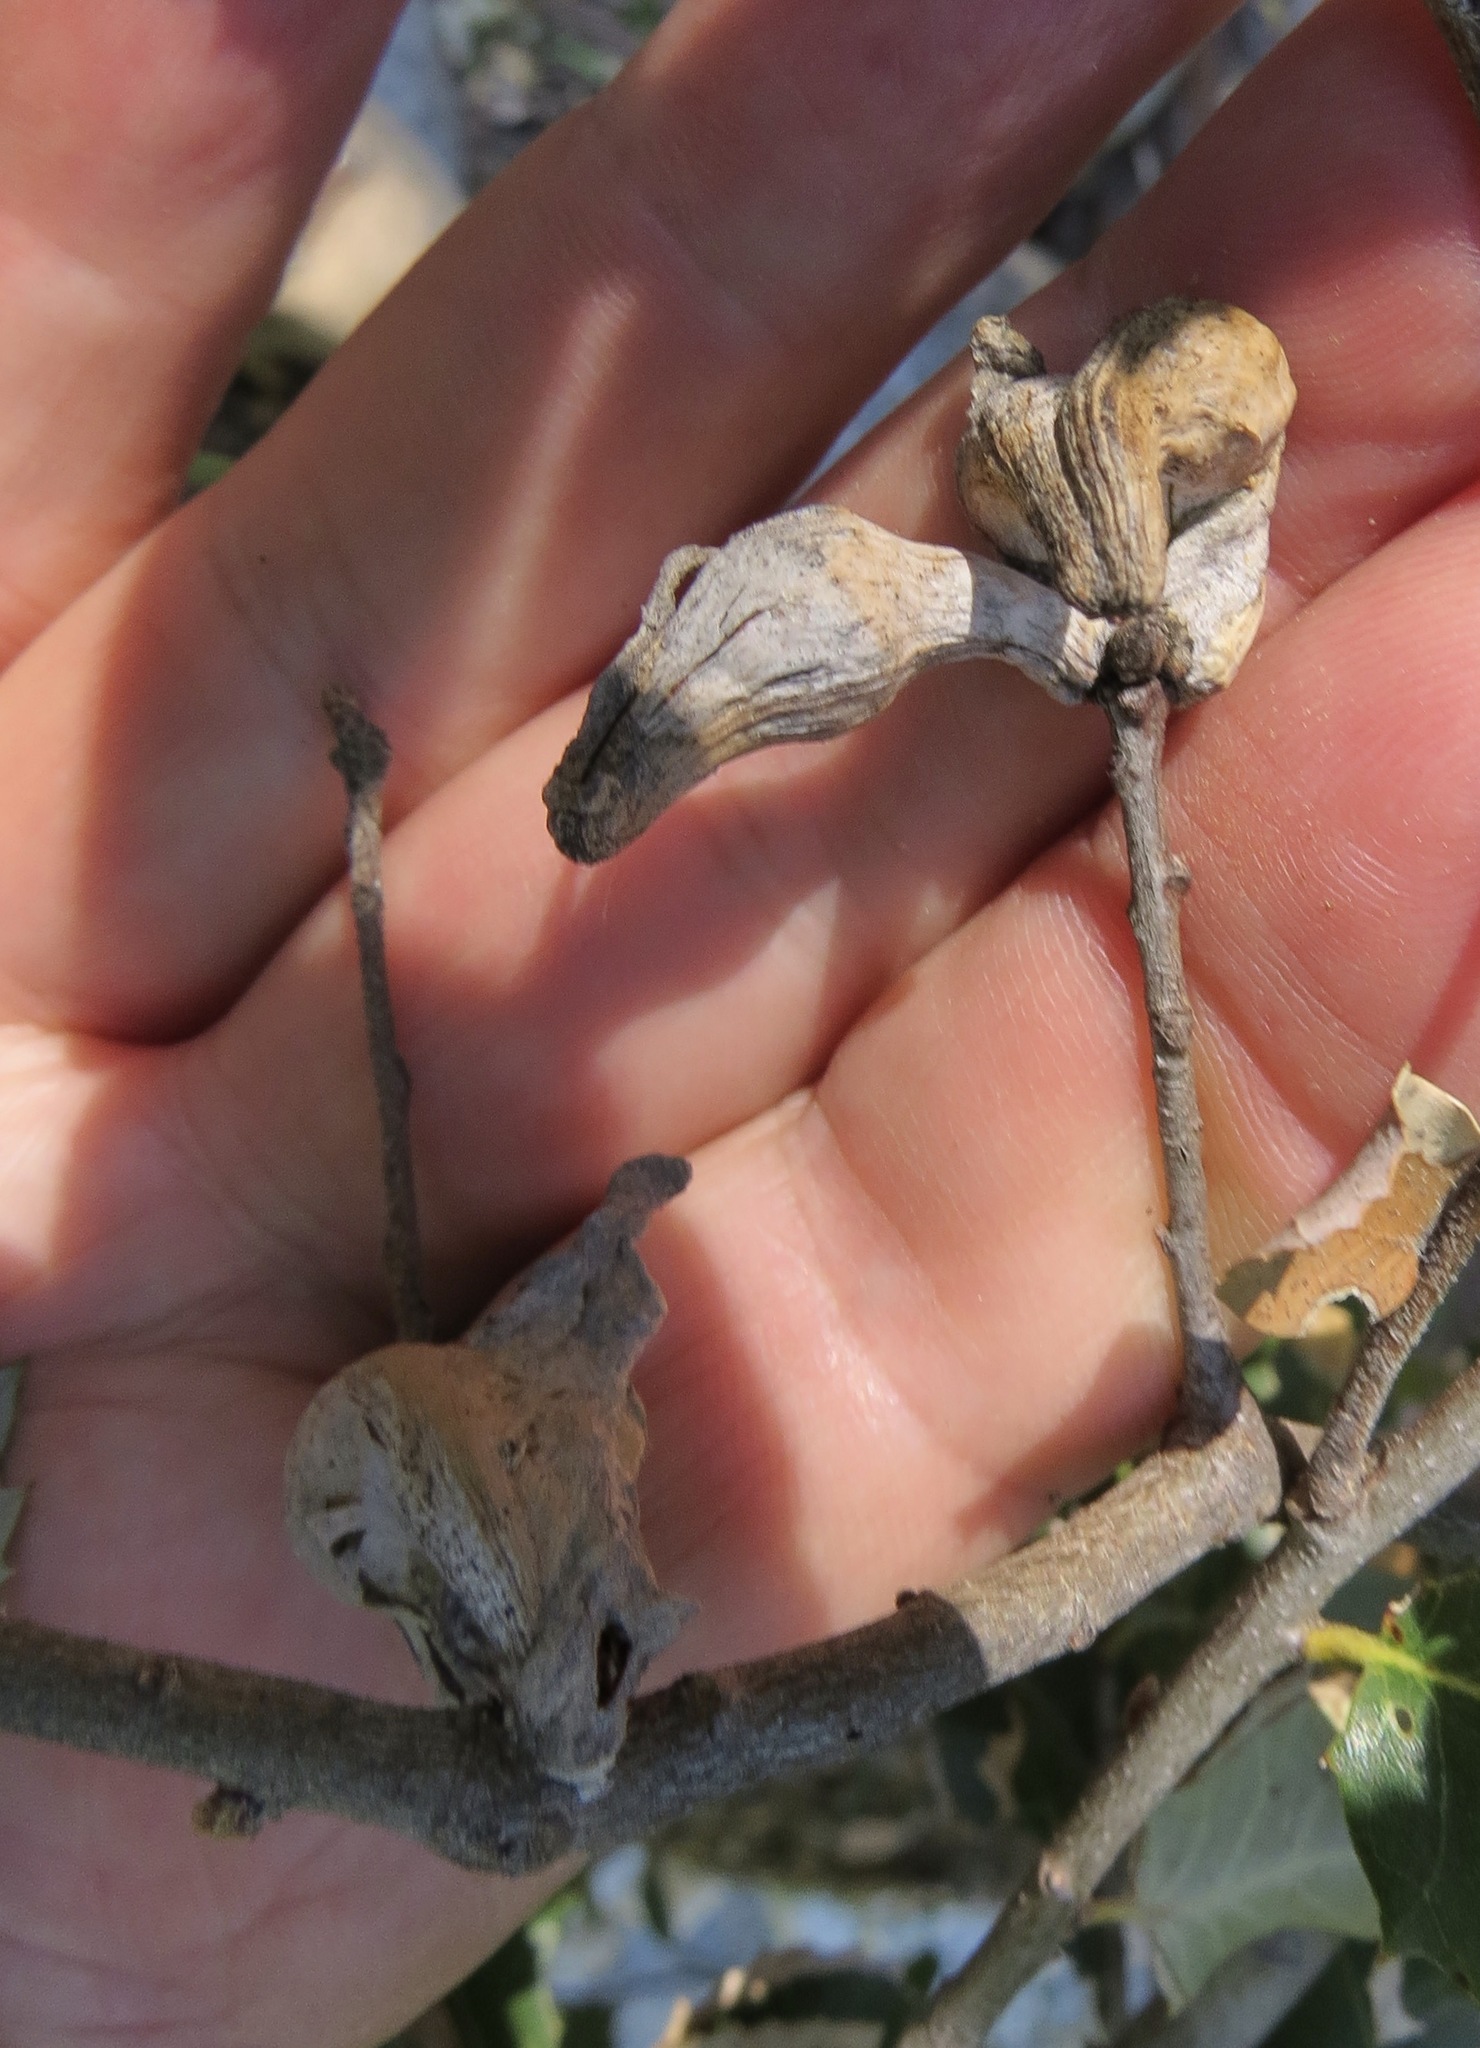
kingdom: Animalia
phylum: Arthropoda
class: Insecta
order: Hymenoptera
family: Cynipidae
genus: Heteroecus
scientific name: Heteroecus
